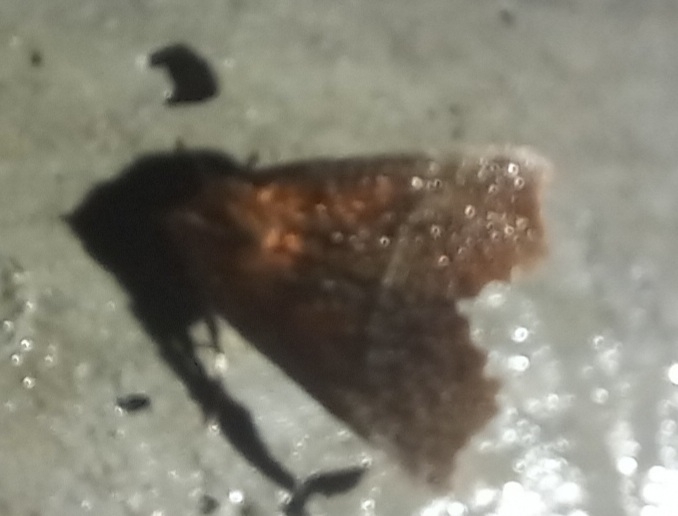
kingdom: Animalia
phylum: Arthropoda
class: Insecta
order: Lepidoptera
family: Erebidae
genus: Scoliopteryx
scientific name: Scoliopteryx libatrix
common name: Herald
